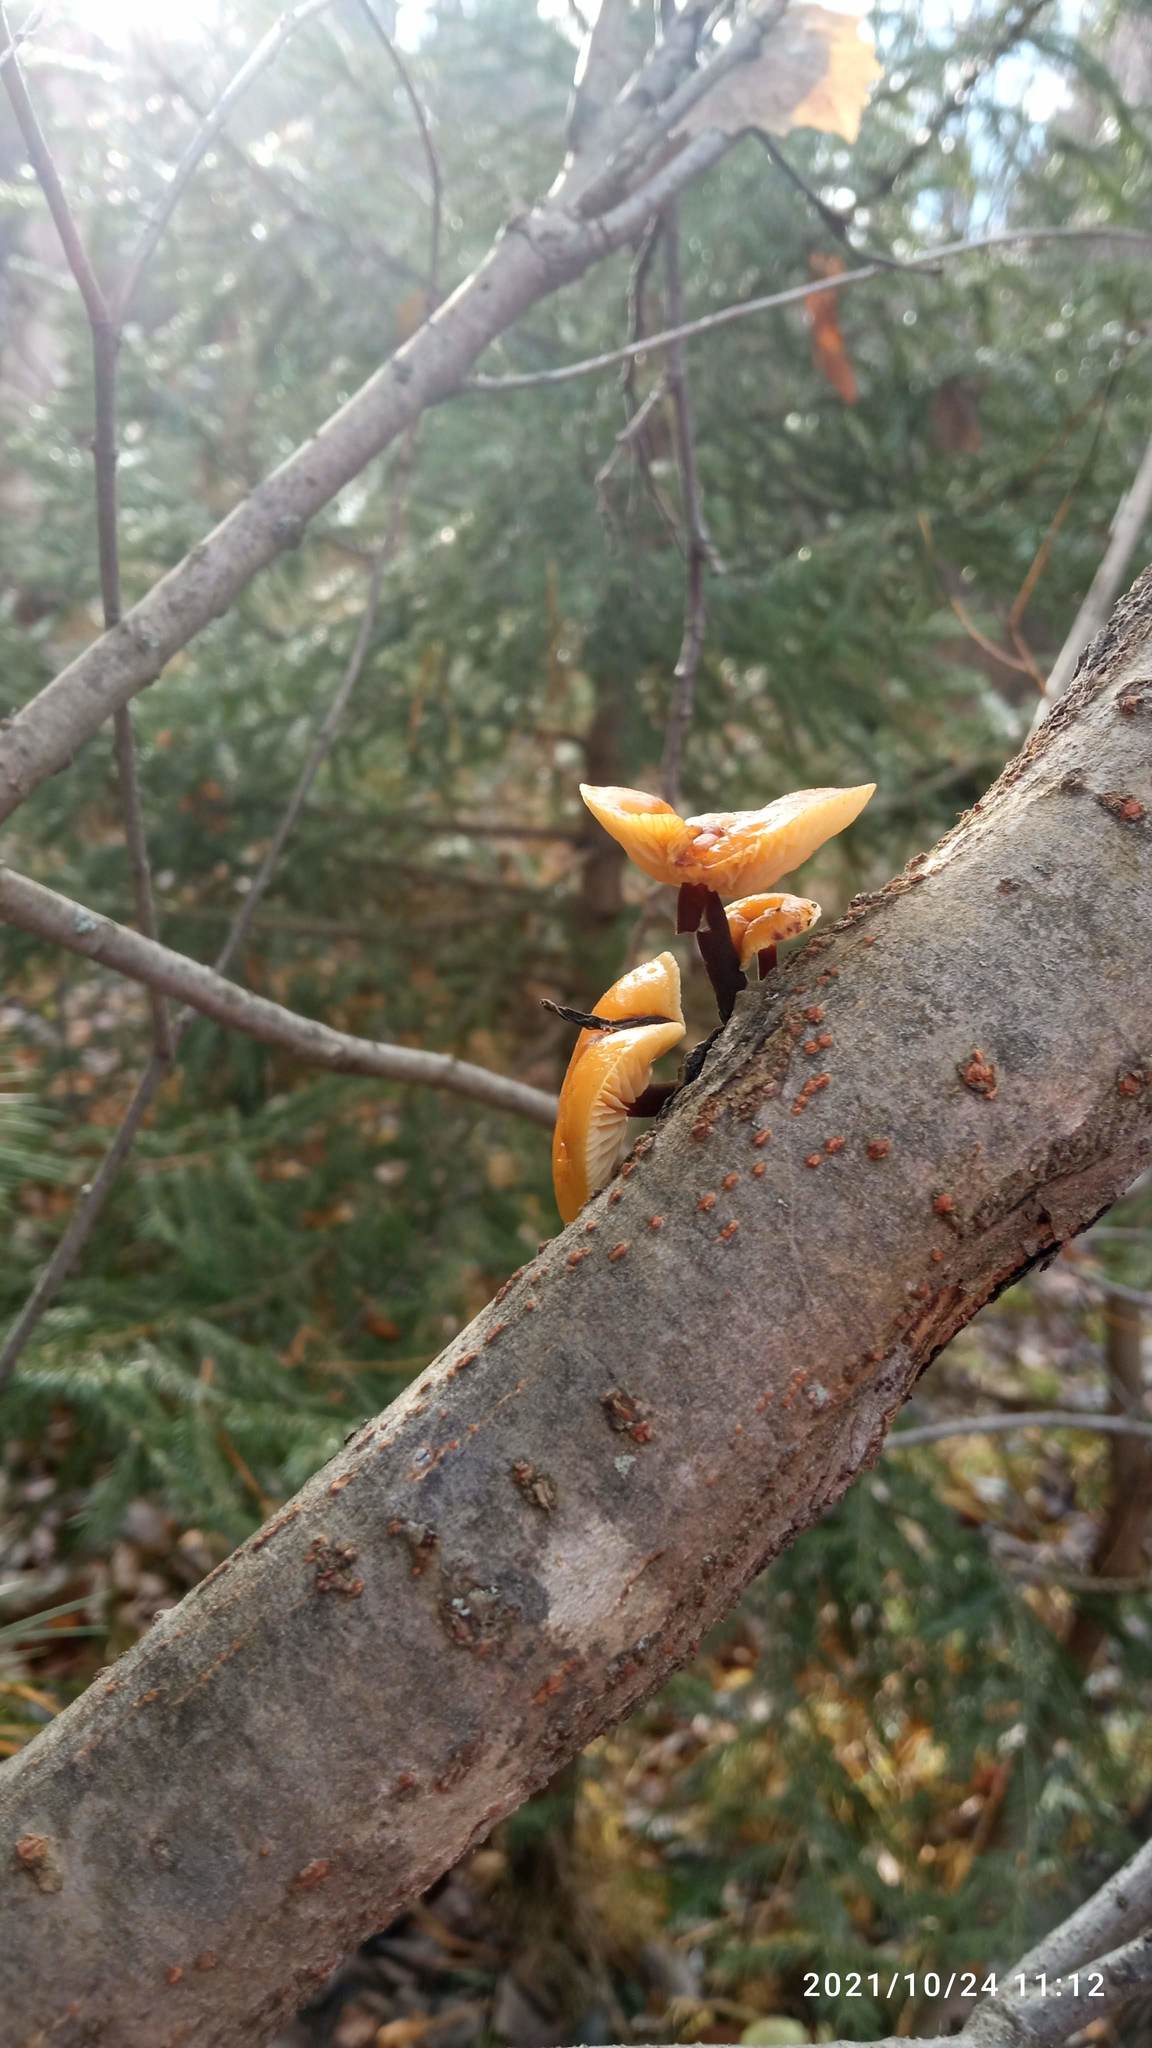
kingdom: Fungi
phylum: Basidiomycota
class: Agaricomycetes
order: Agaricales
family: Physalacriaceae
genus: Flammulina
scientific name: Flammulina velutipes
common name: Velvet shank
